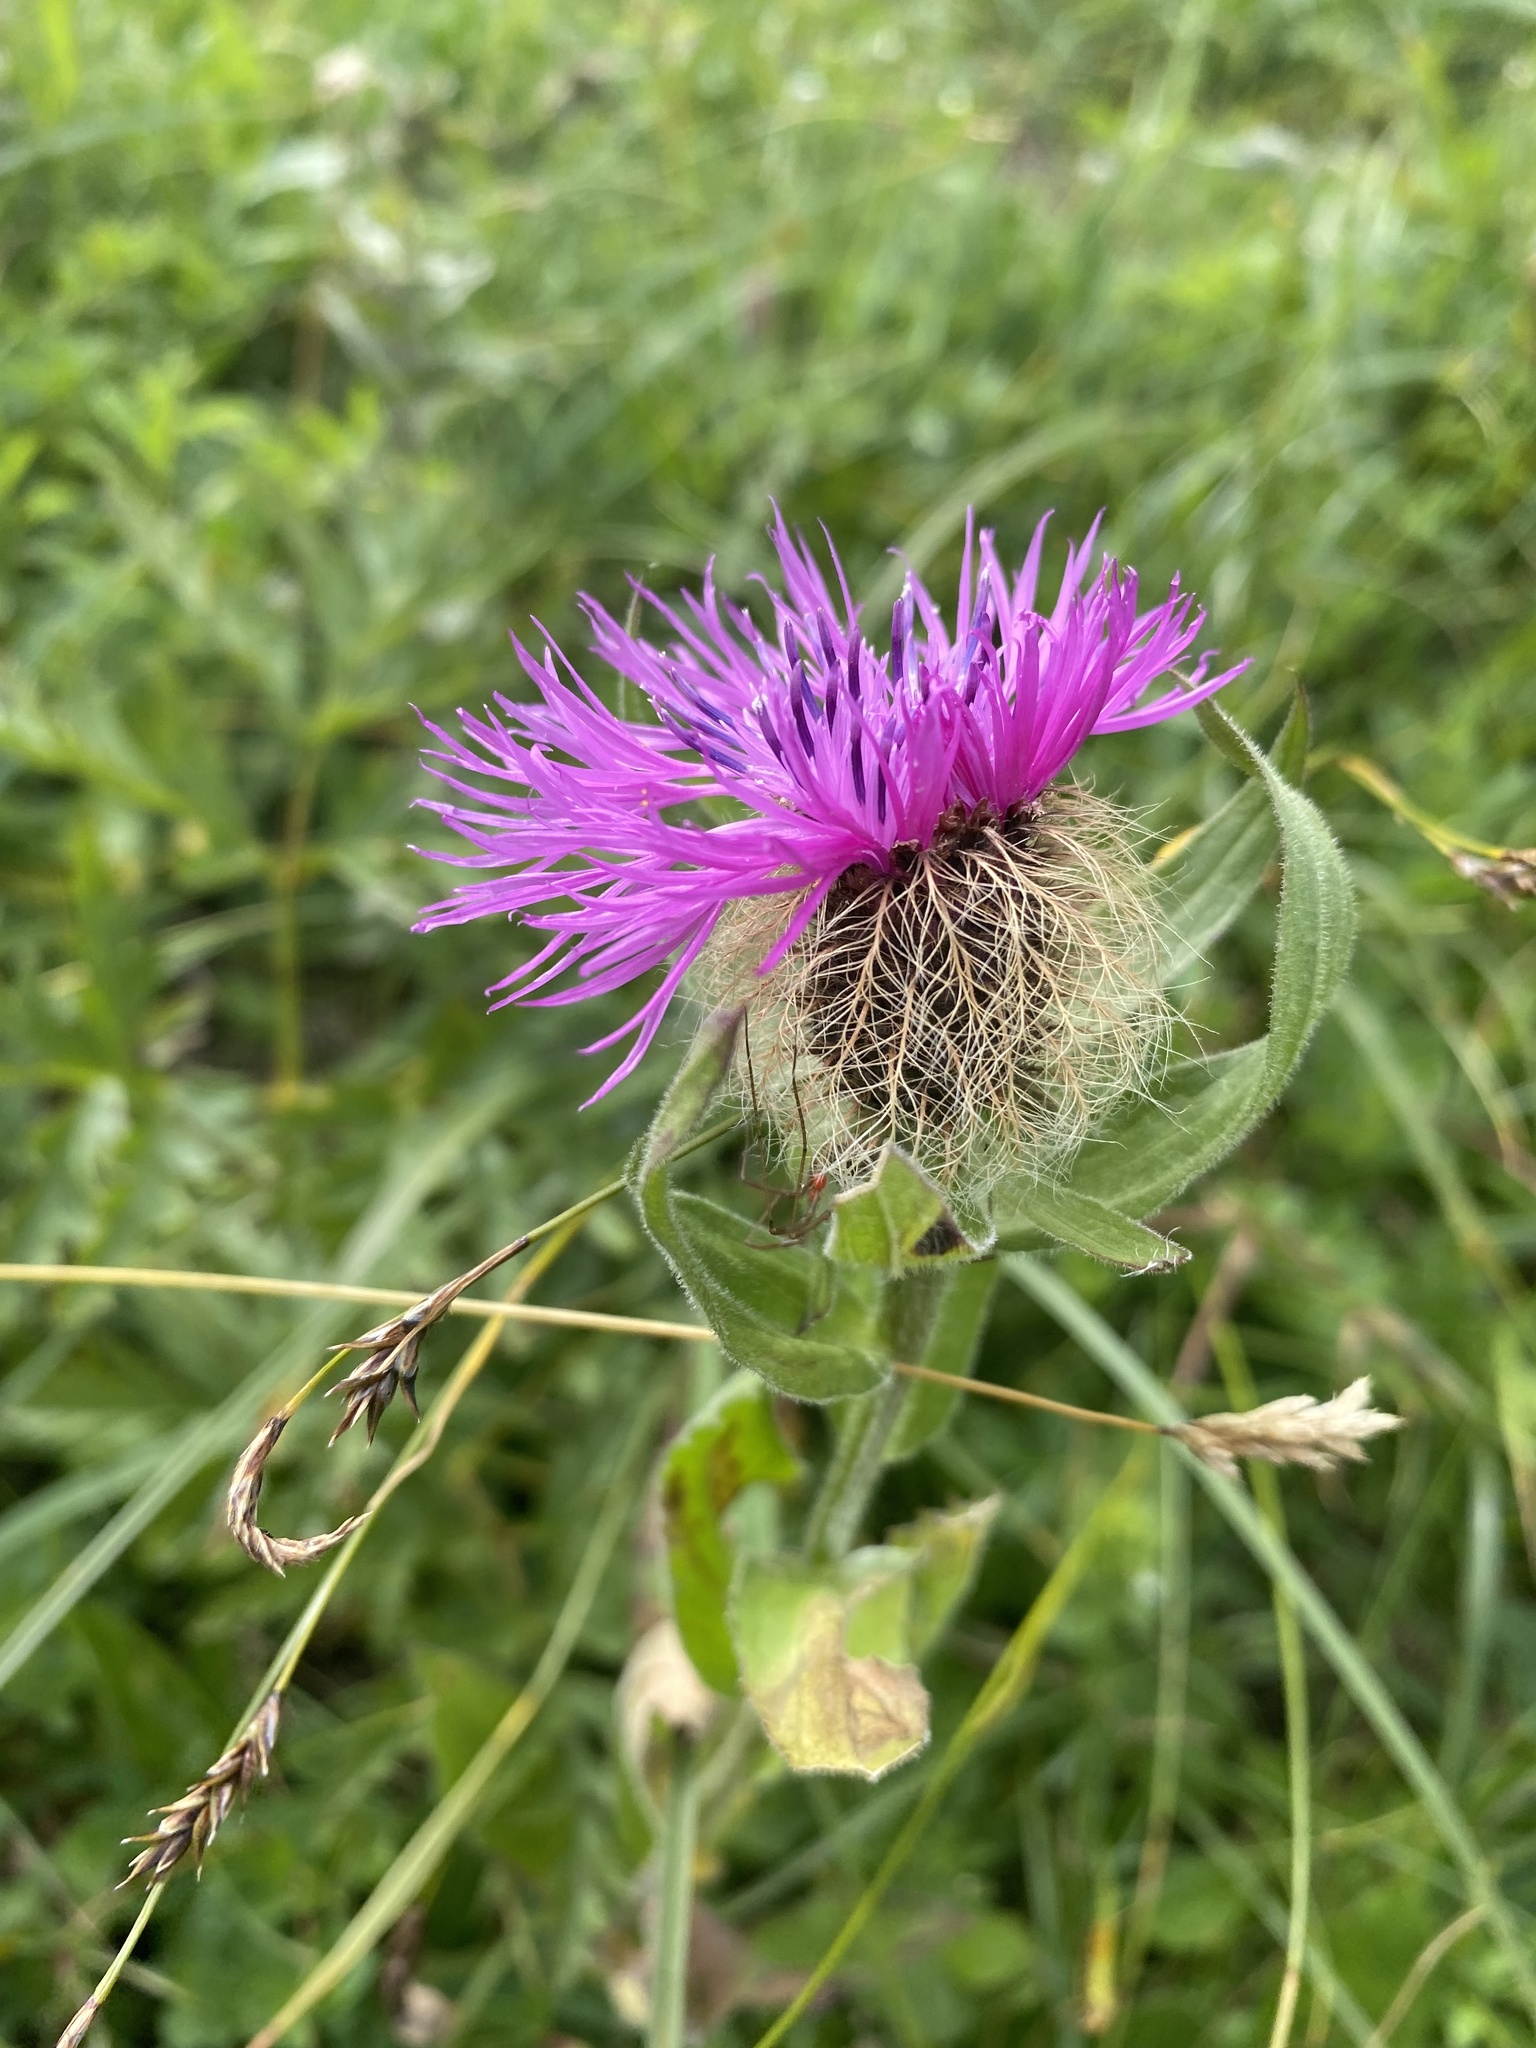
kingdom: Plantae
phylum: Tracheophyta
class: Magnoliopsida
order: Asterales
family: Asteraceae
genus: Centaurea
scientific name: Centaurea nervosa
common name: Singleflower knapweed
